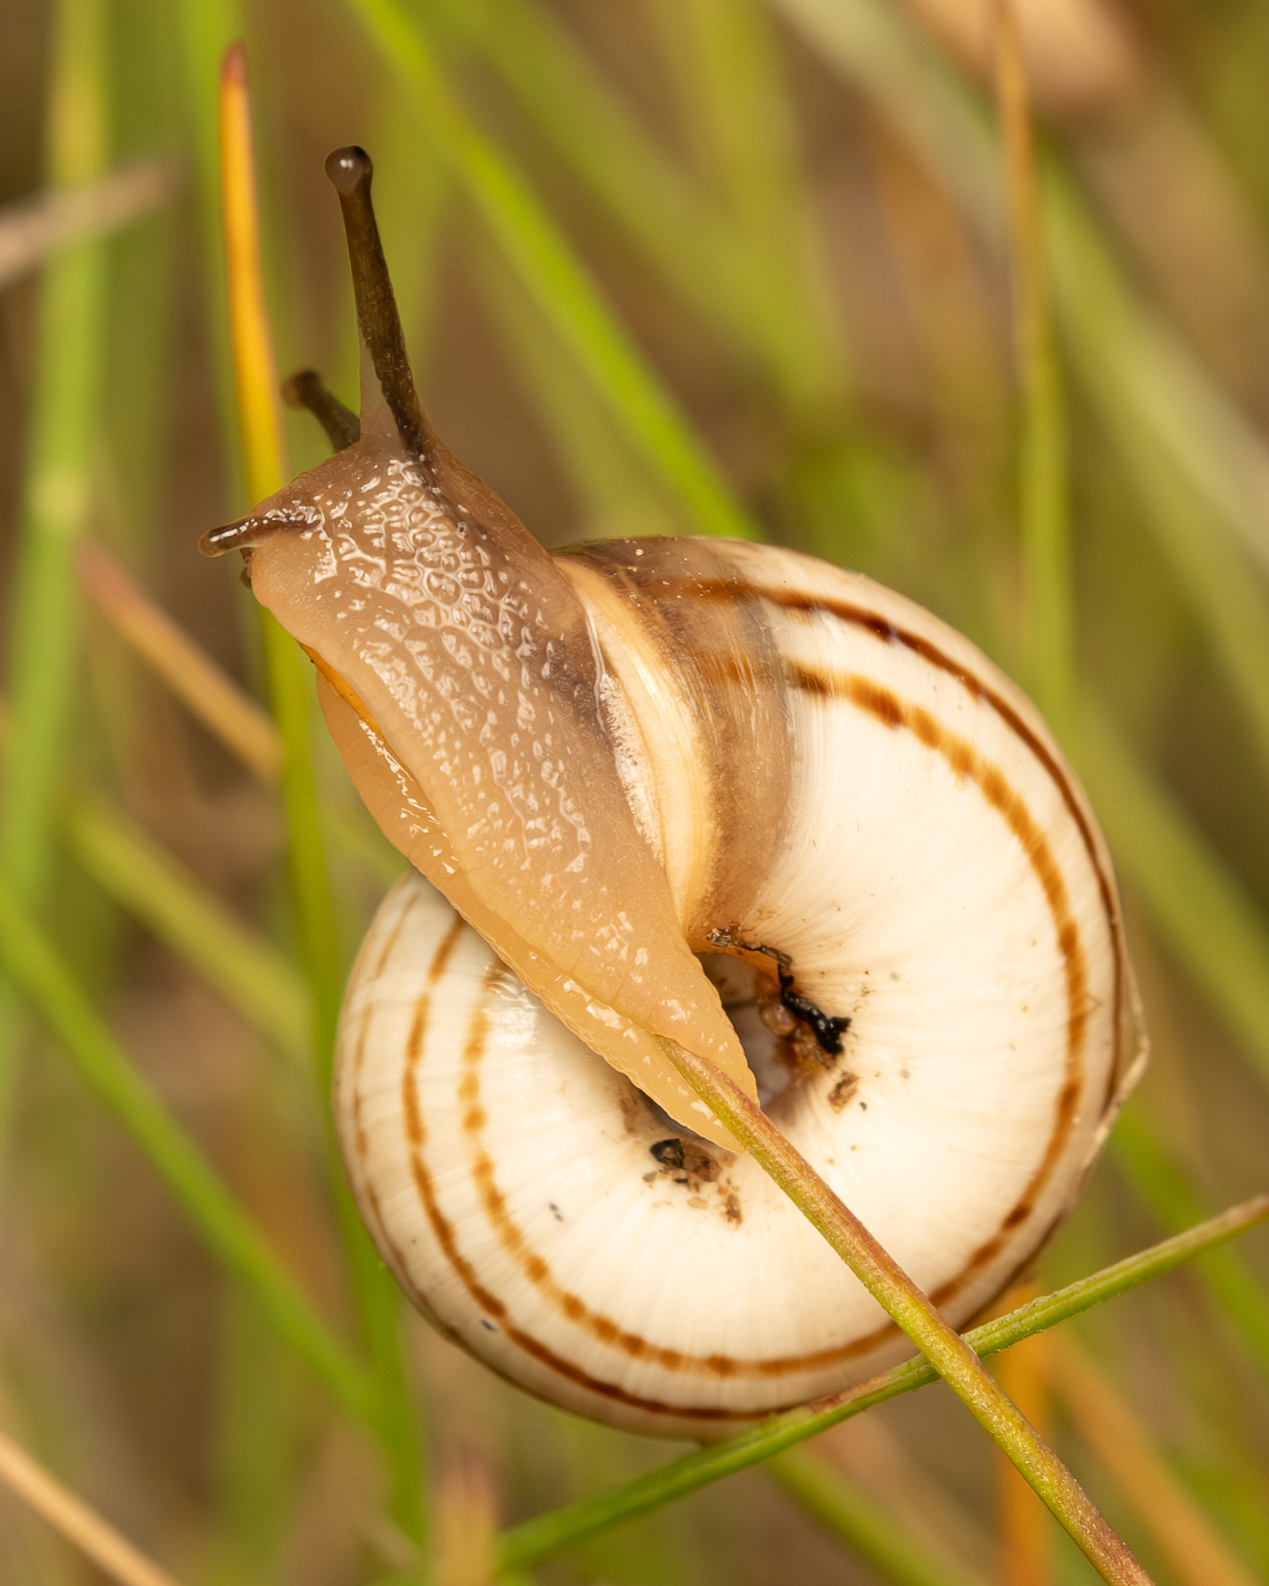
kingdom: Animalia
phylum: Mollusca
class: Gastropoda
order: Stylommatophora
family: Geomitridae
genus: Xerolenta
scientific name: Xerolenta obvia
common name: White heath snail
